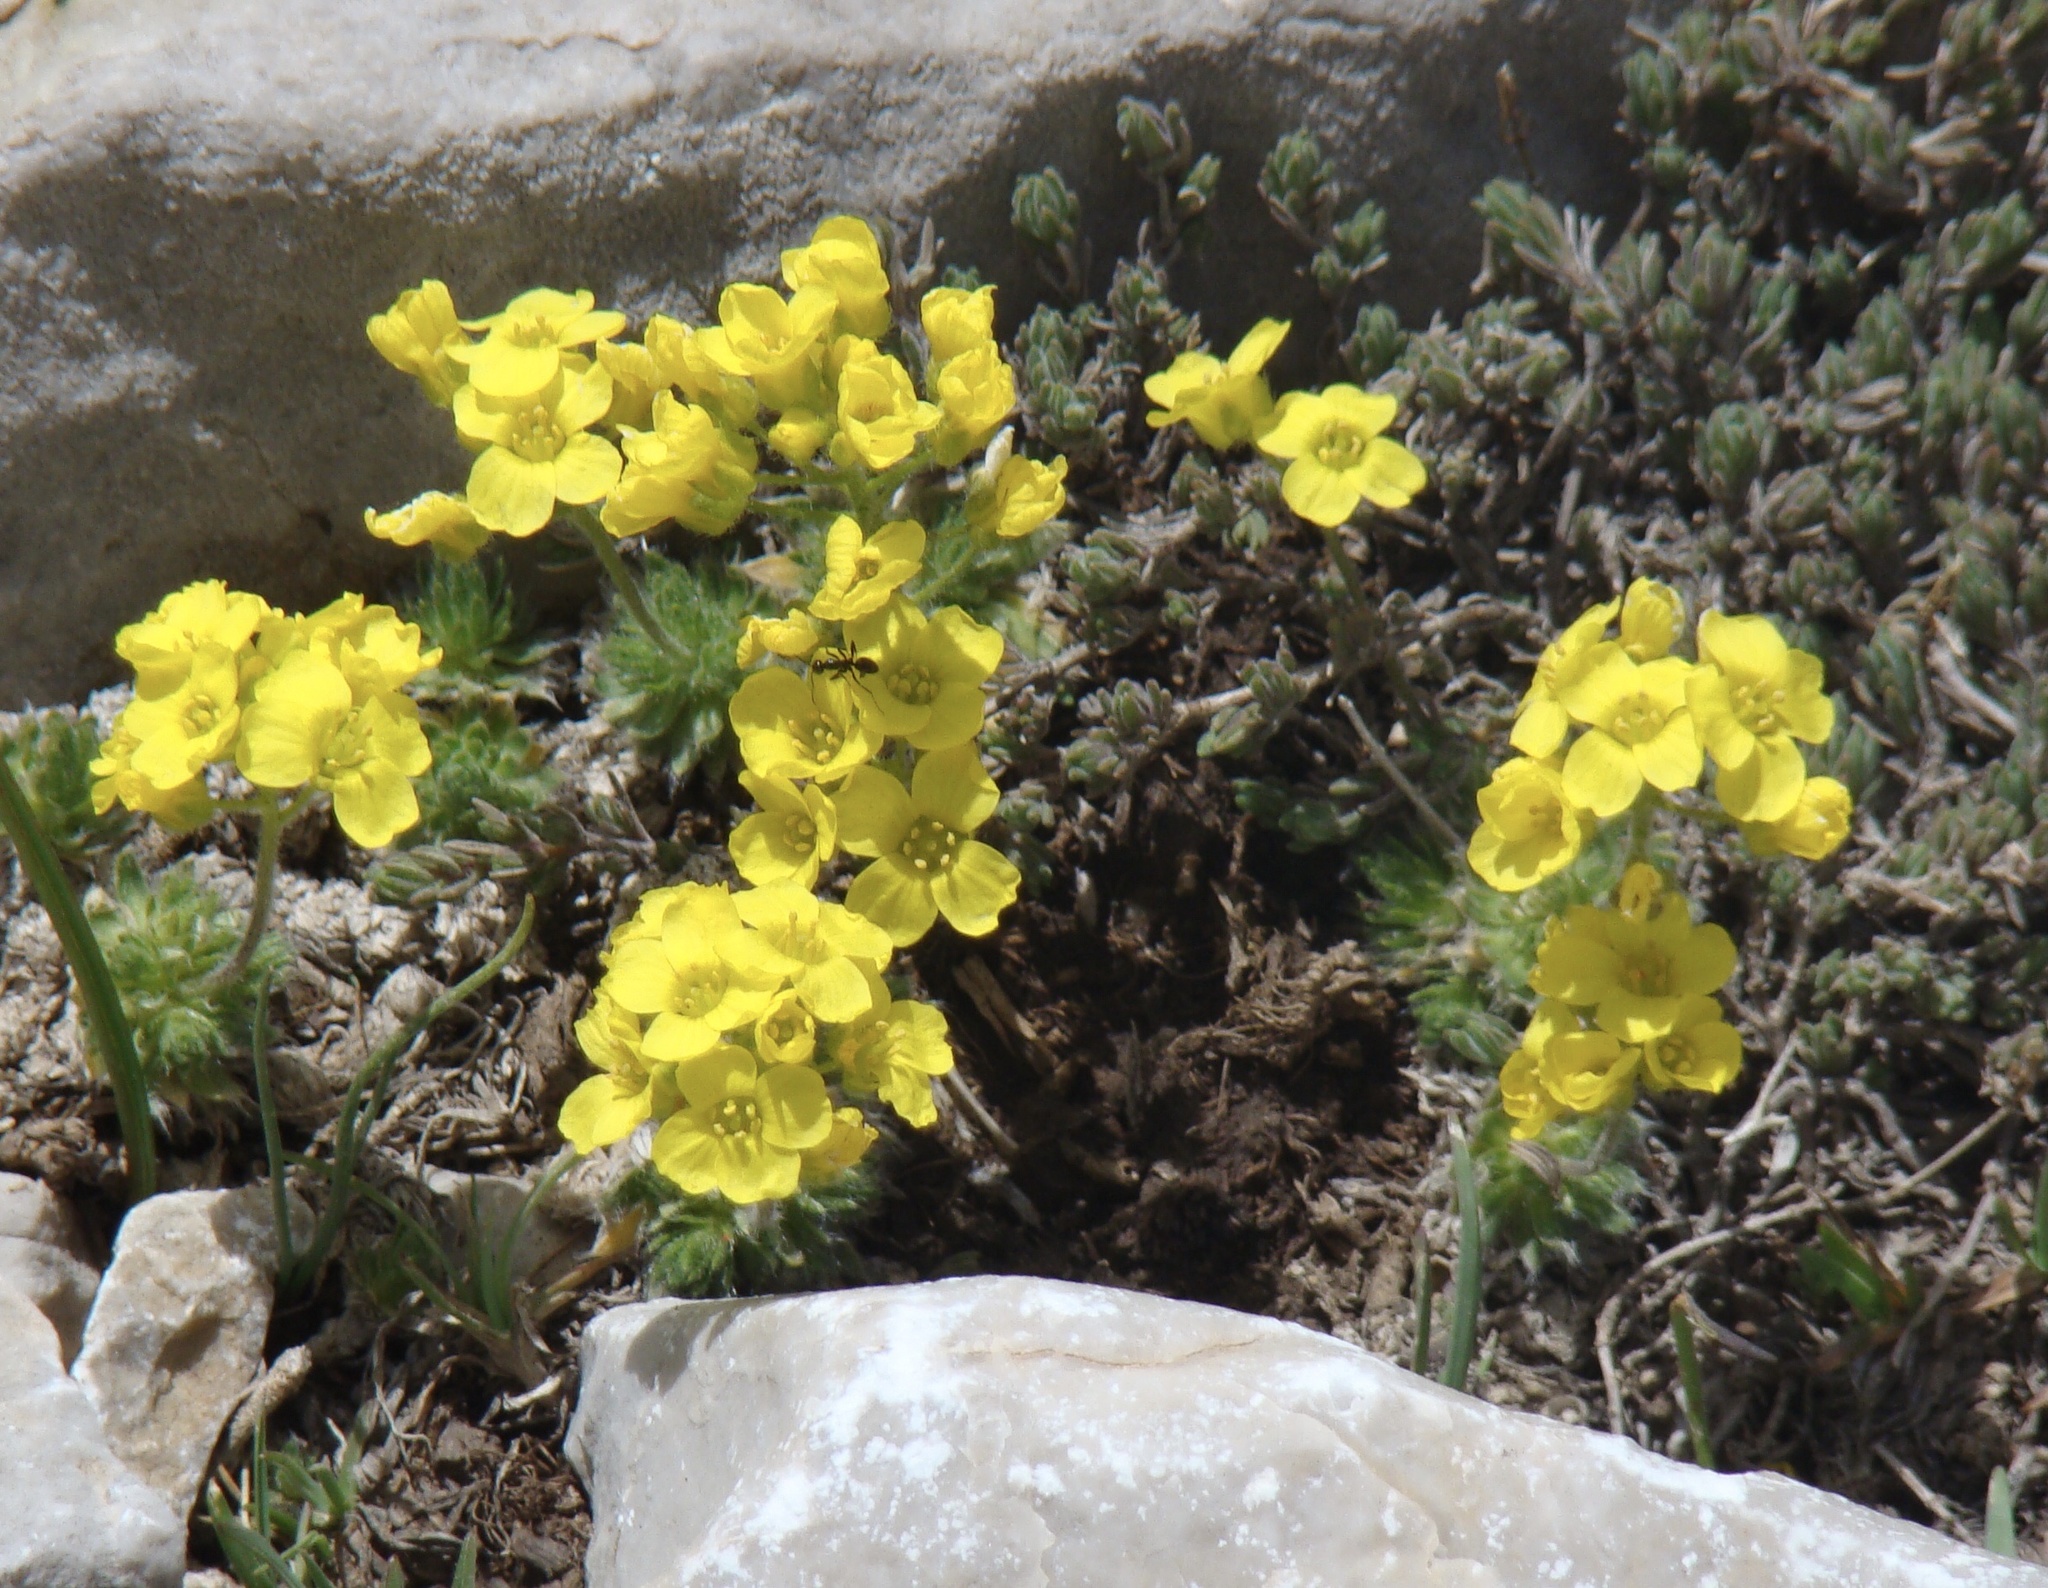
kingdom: Plantae
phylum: Tracheophyta
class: Magnoliopsida
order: Brassicales
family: Brassicaceae
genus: Draba
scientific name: Draba bruniifolia
